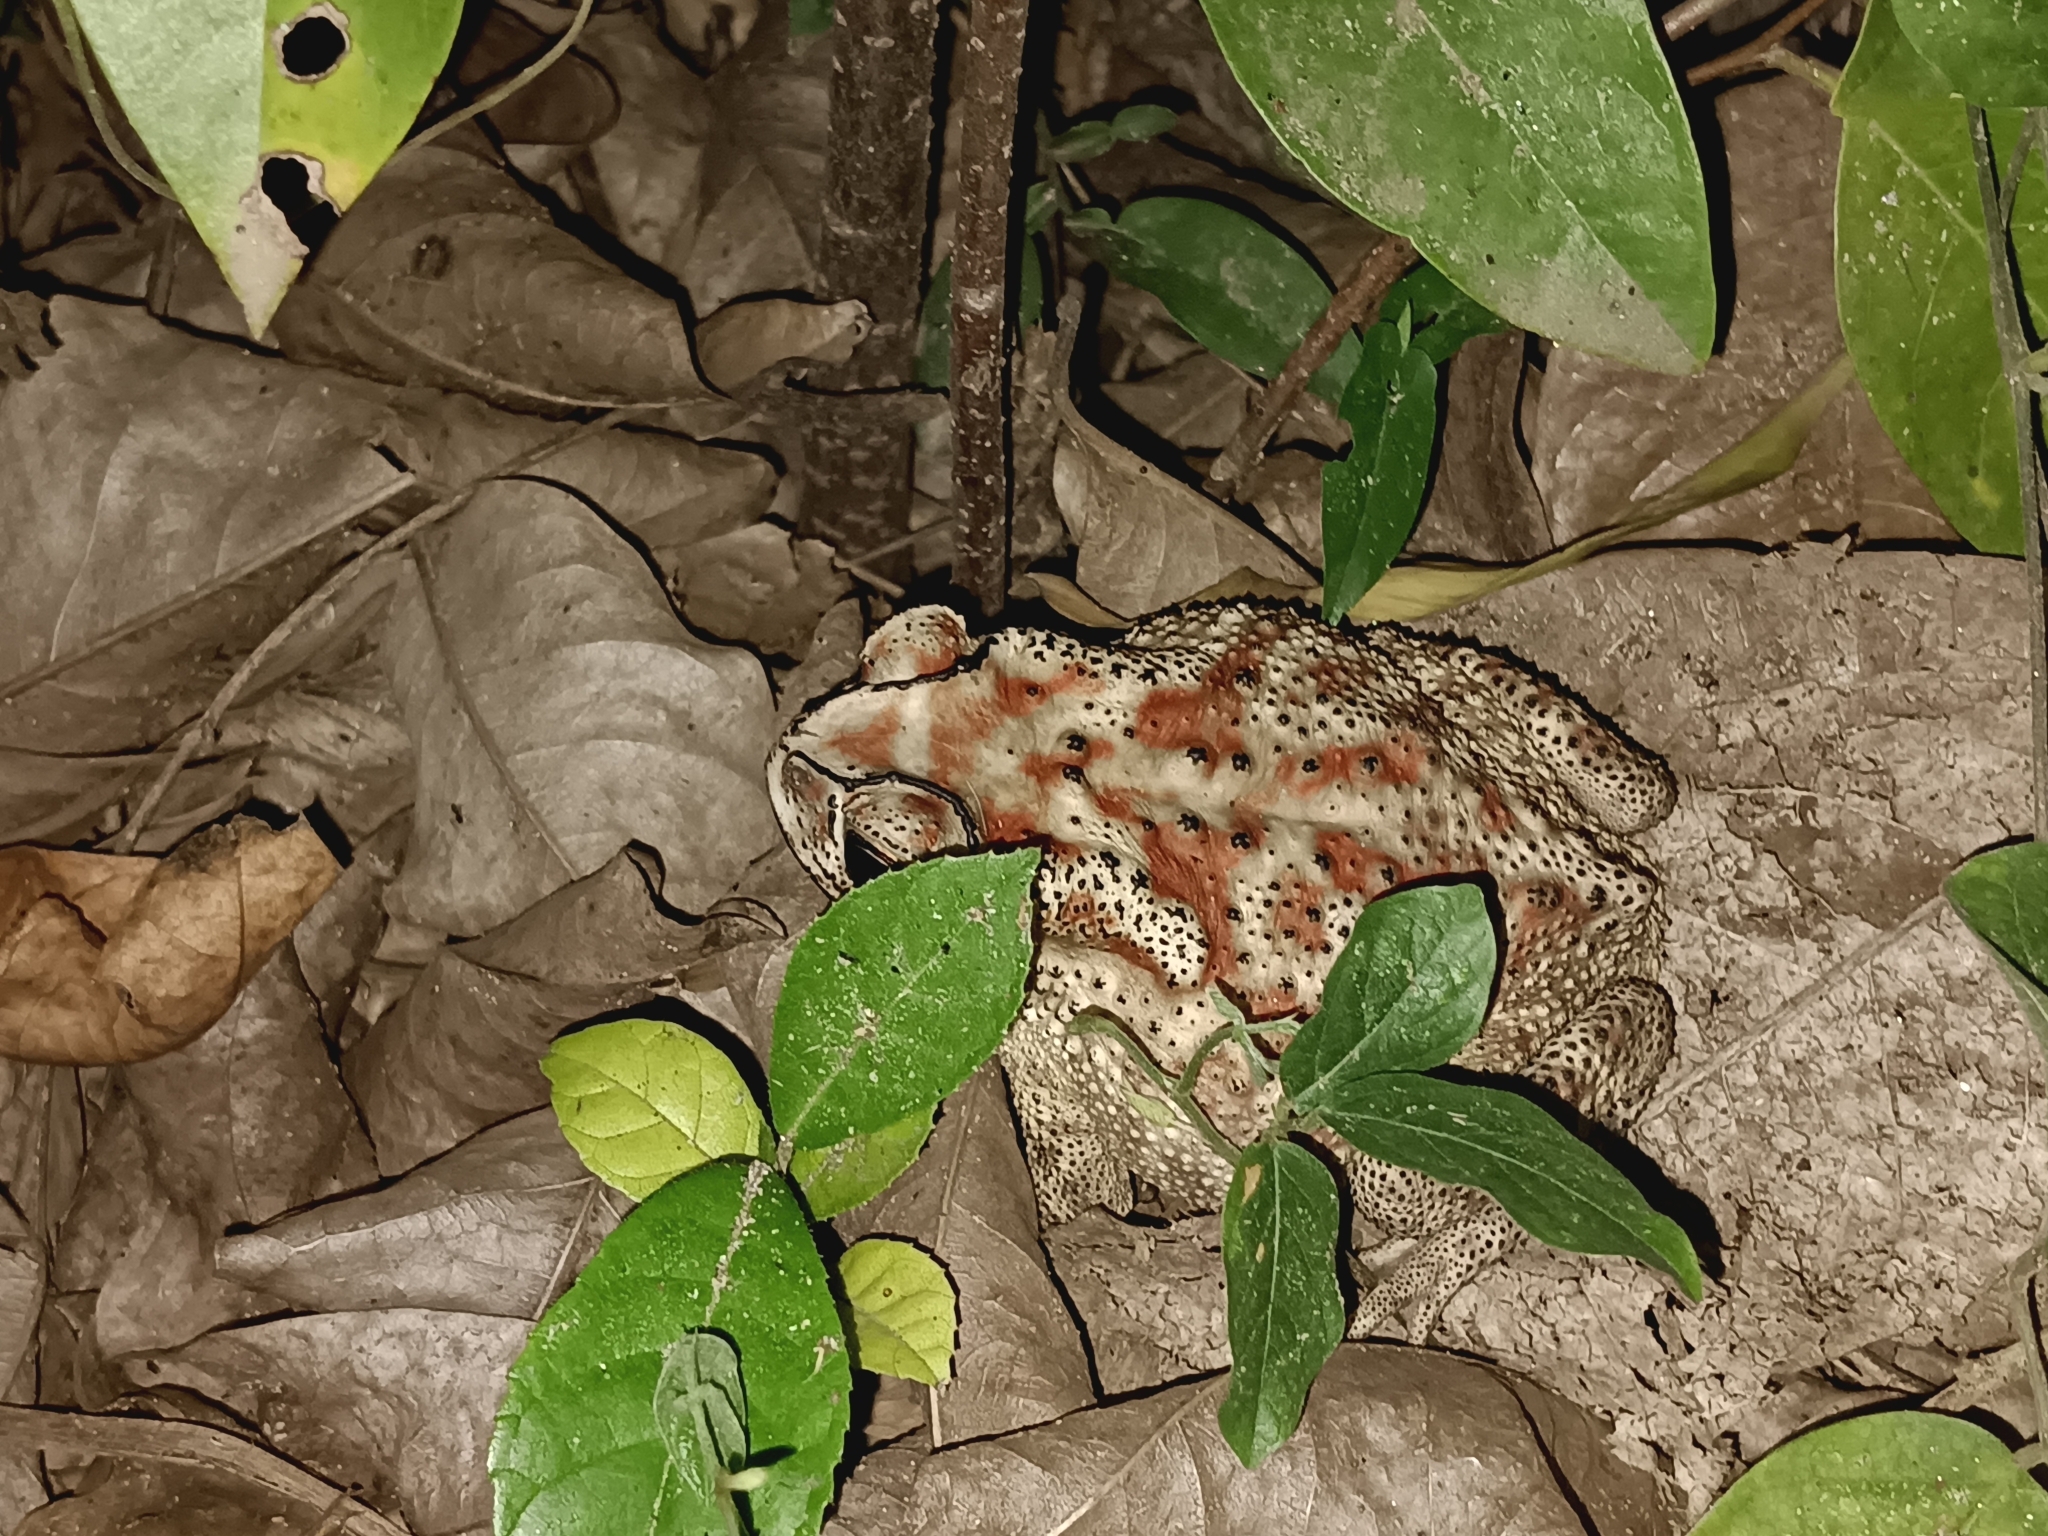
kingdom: Animalia
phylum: Chordata
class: Amphibia
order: Anura
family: Bufonidae
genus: Duttaphrynus
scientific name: Duttaphrynus melanostictus
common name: Common sunda toad
